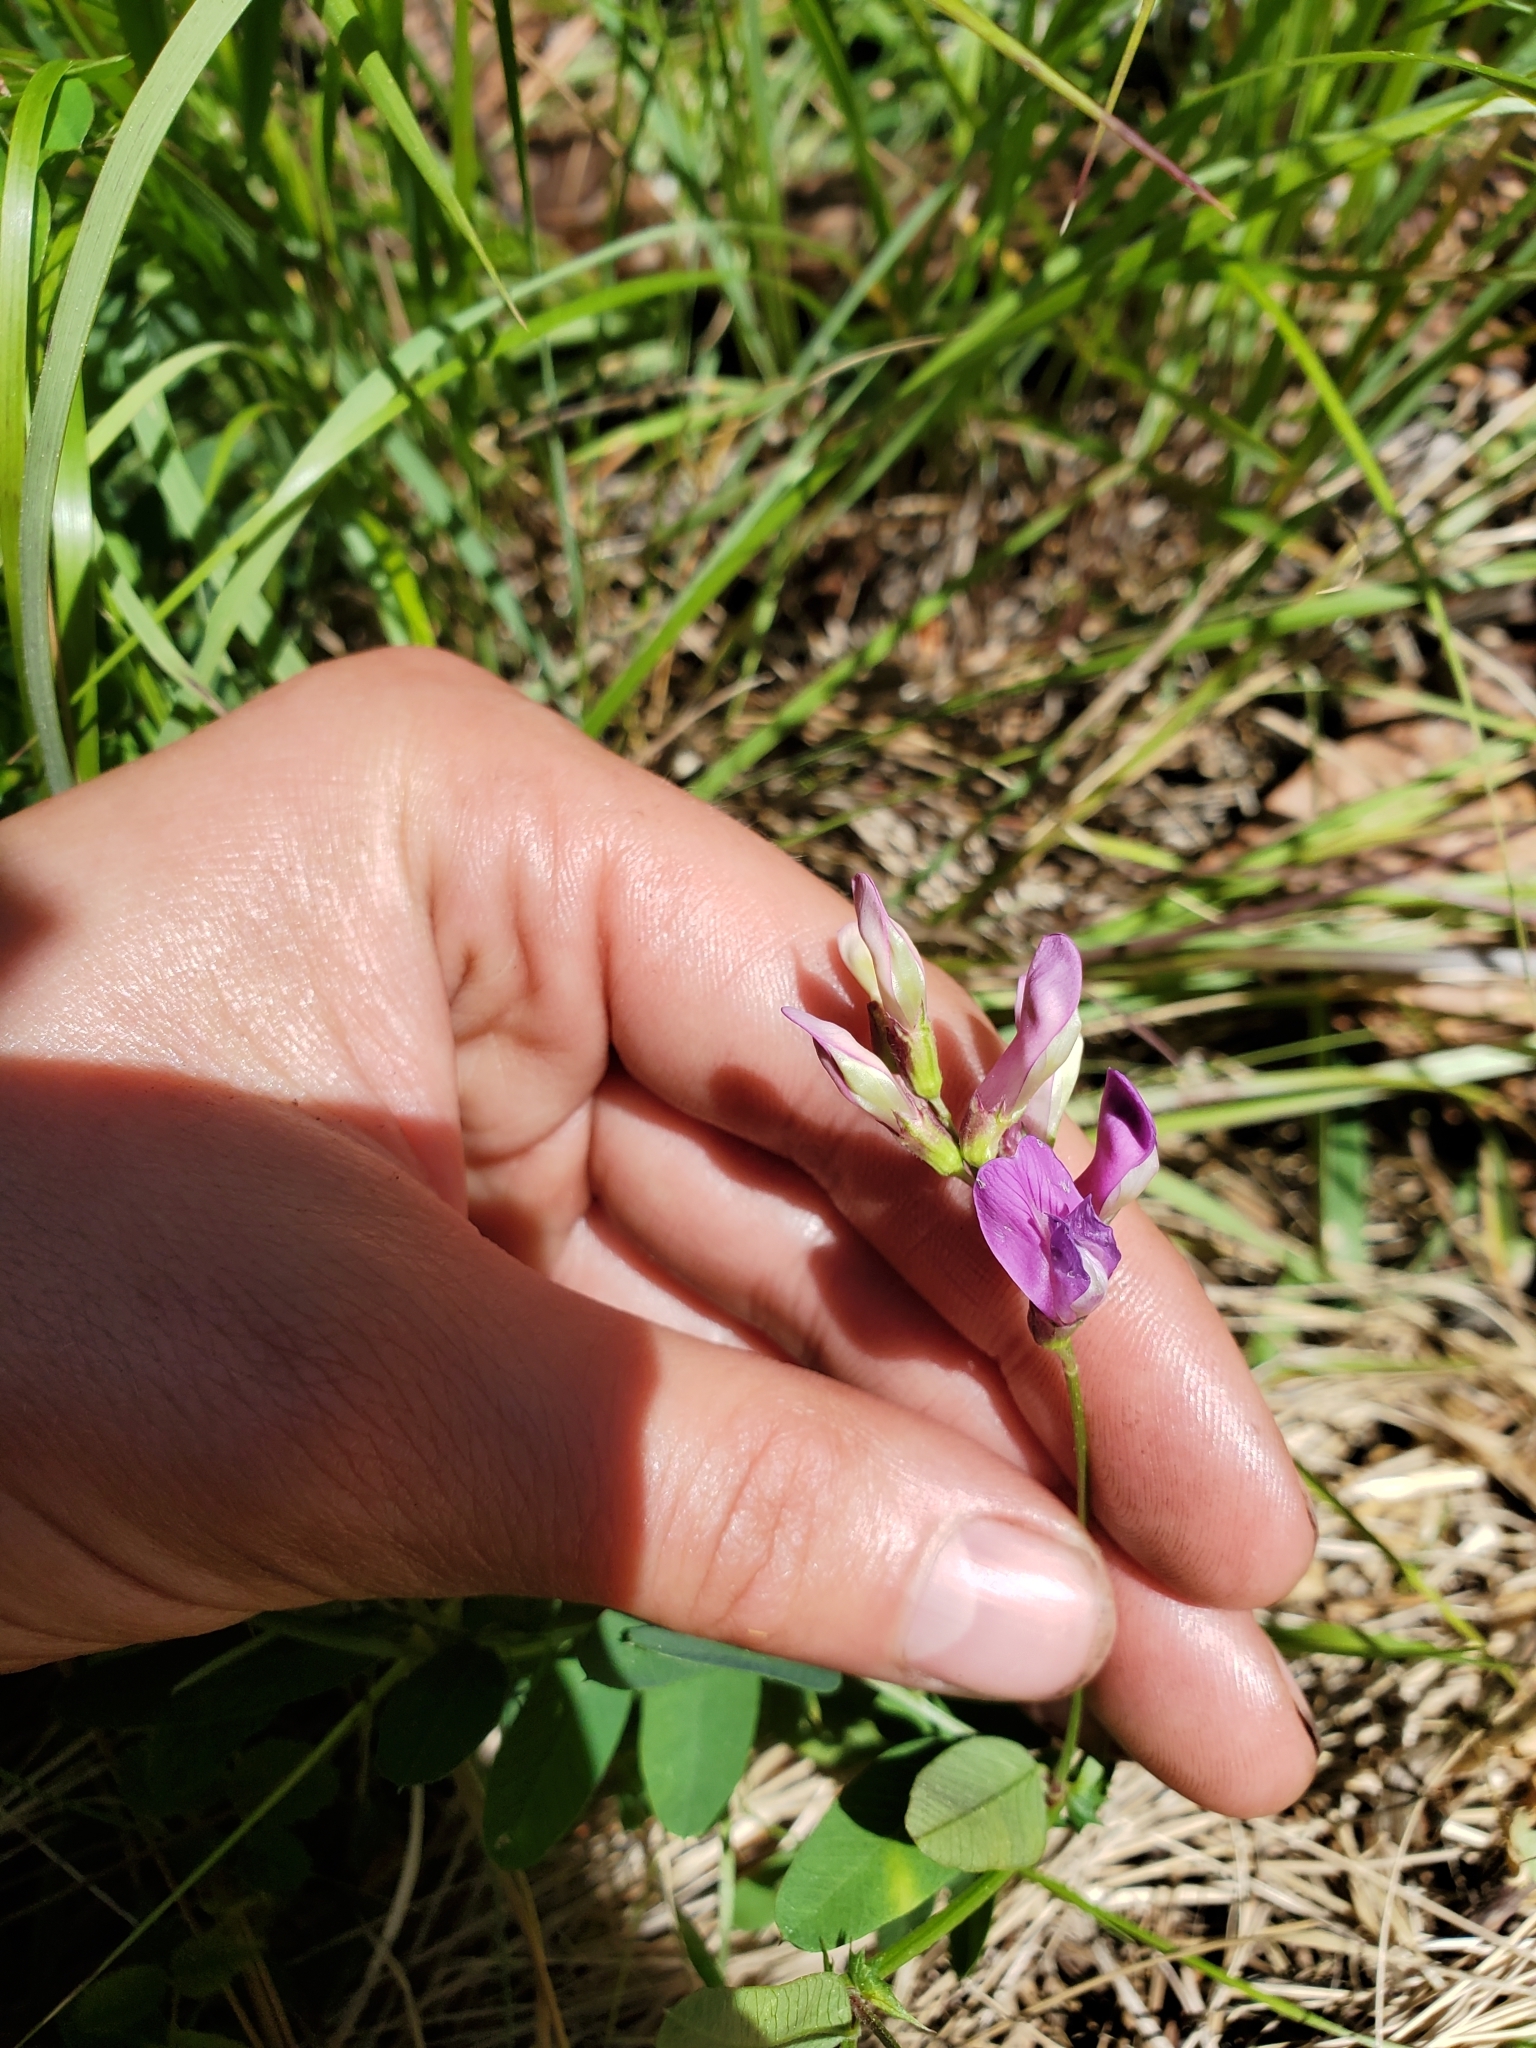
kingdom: Plantae
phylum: Tracheophyta
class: Magnoliopsida
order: Fabales
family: Fabaceae
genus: Vicia
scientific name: Vicia americana
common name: American vetch
